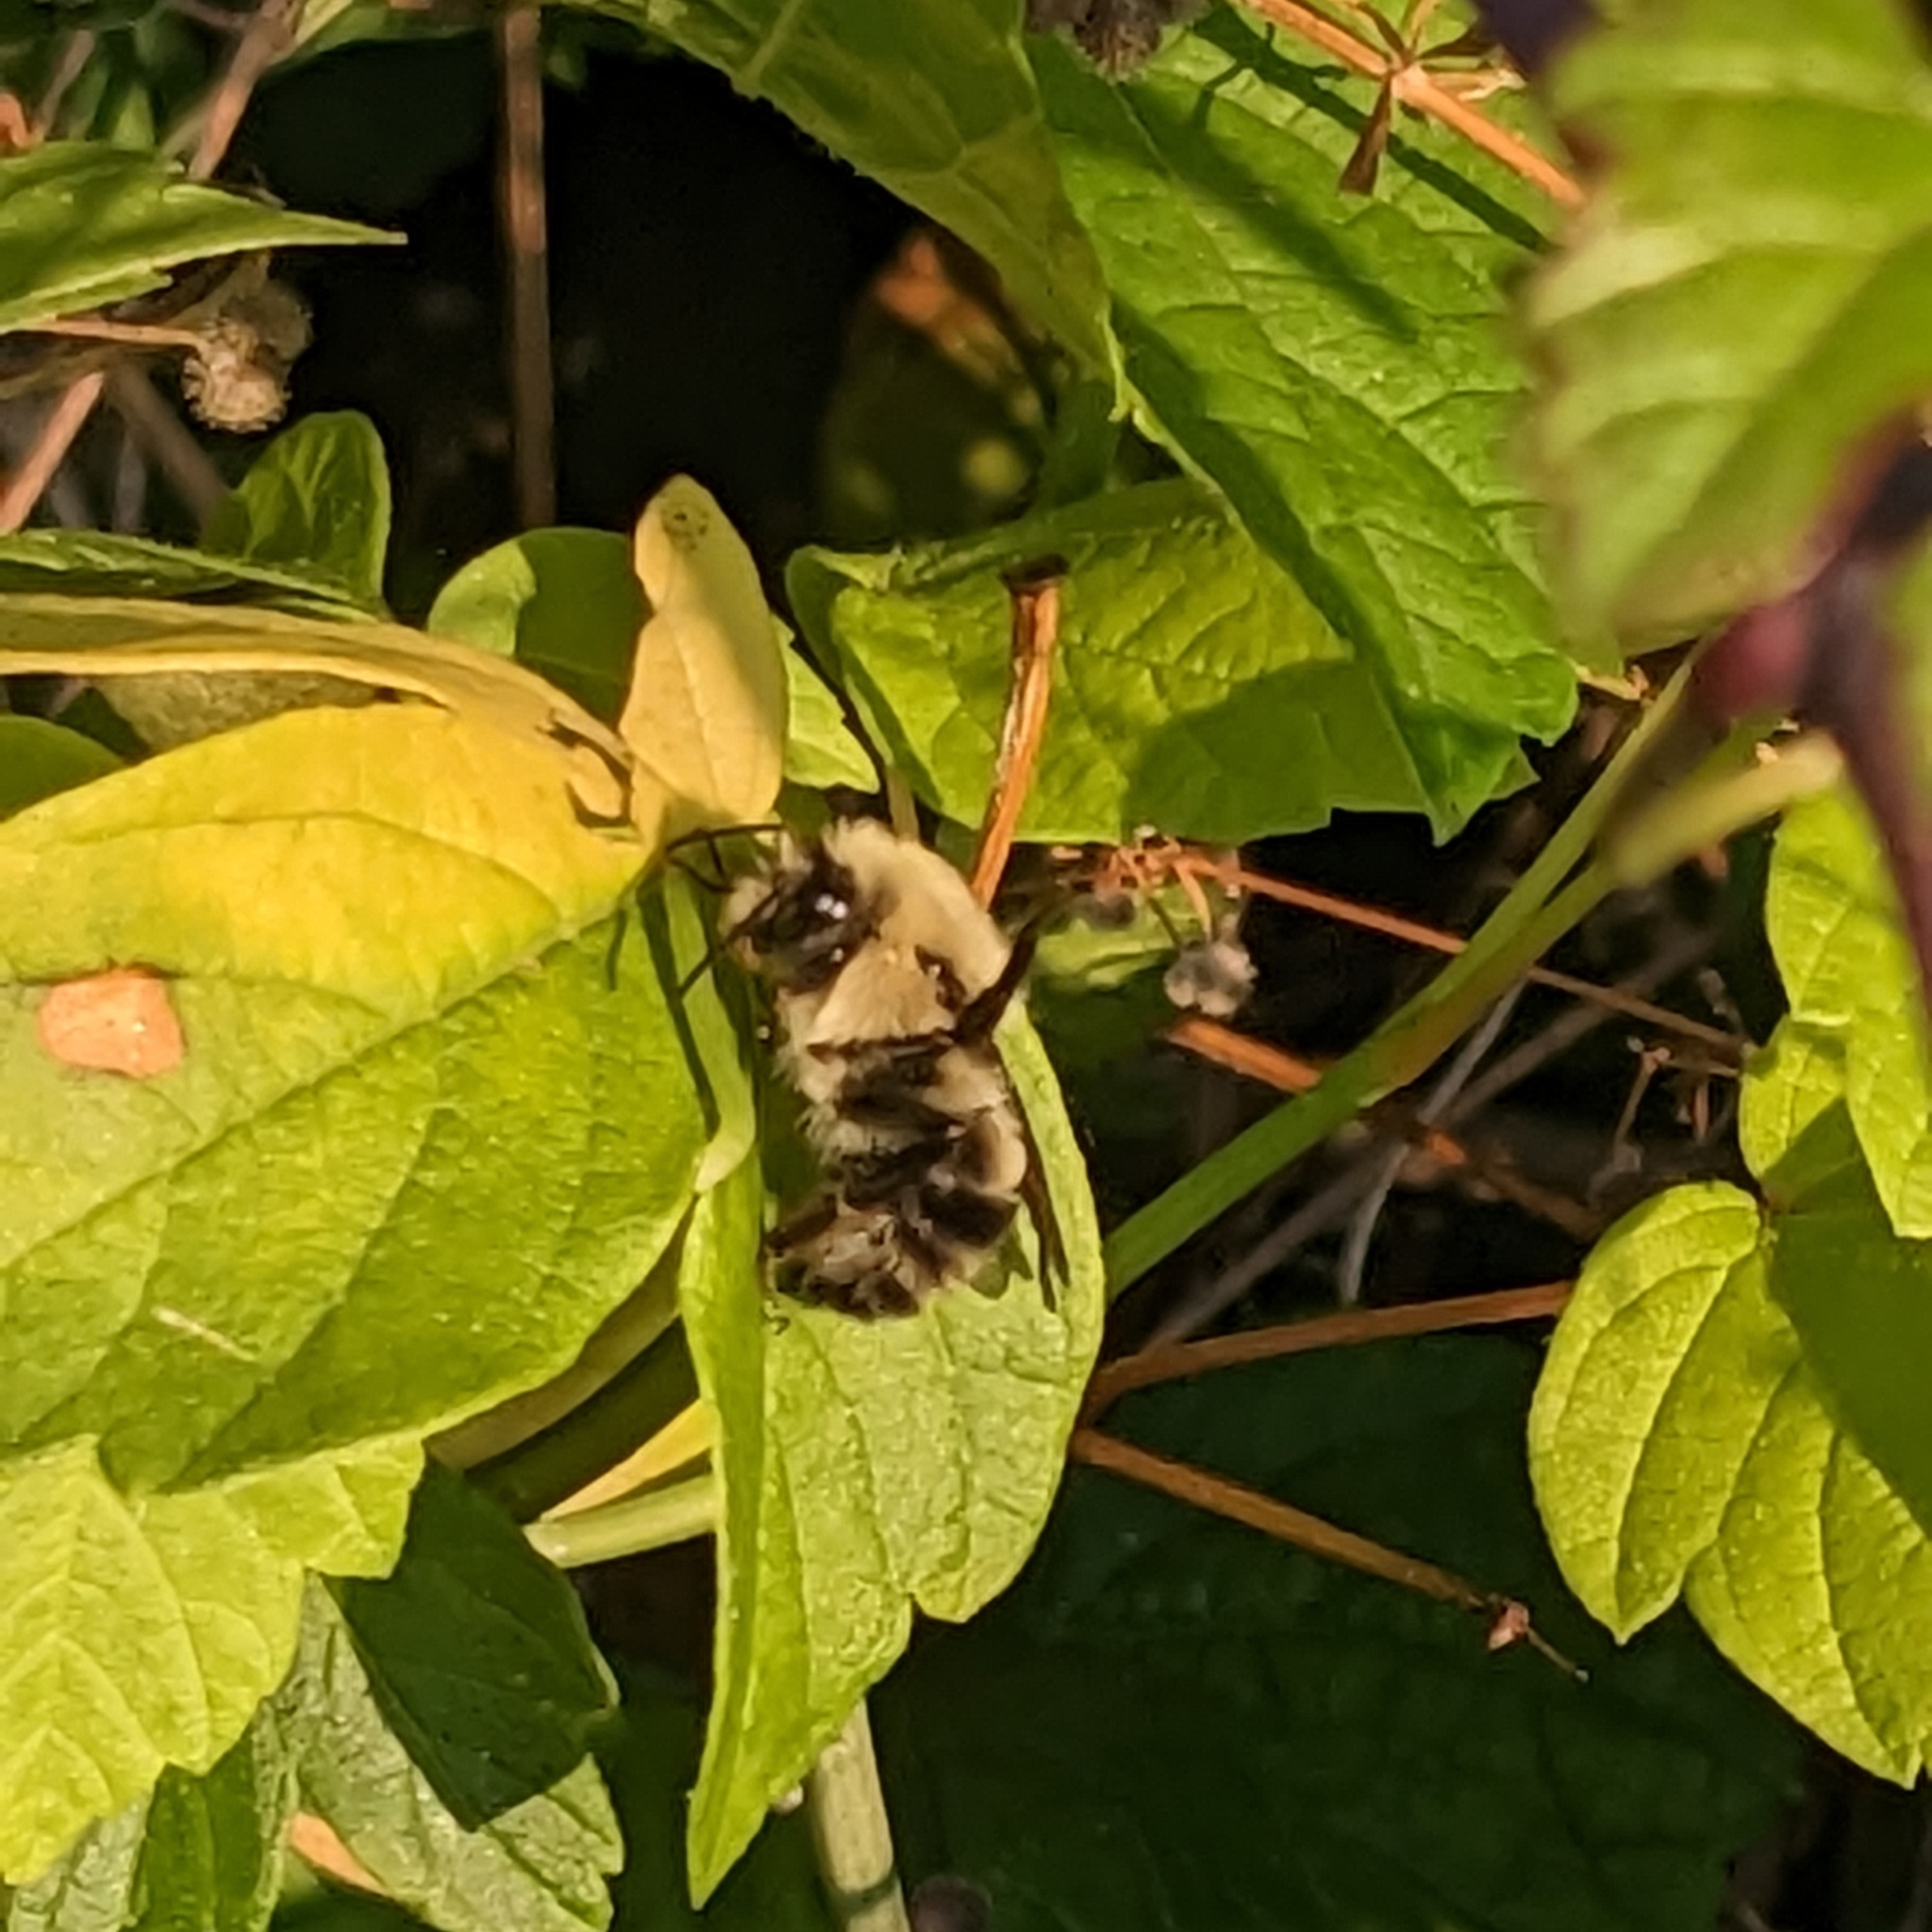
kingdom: Animalia
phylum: Arthropoda
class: Insecta
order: Hymenoptera
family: Apidae
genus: Bombus
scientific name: Bombus bimaculatus
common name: Two-spotted bumble bee
